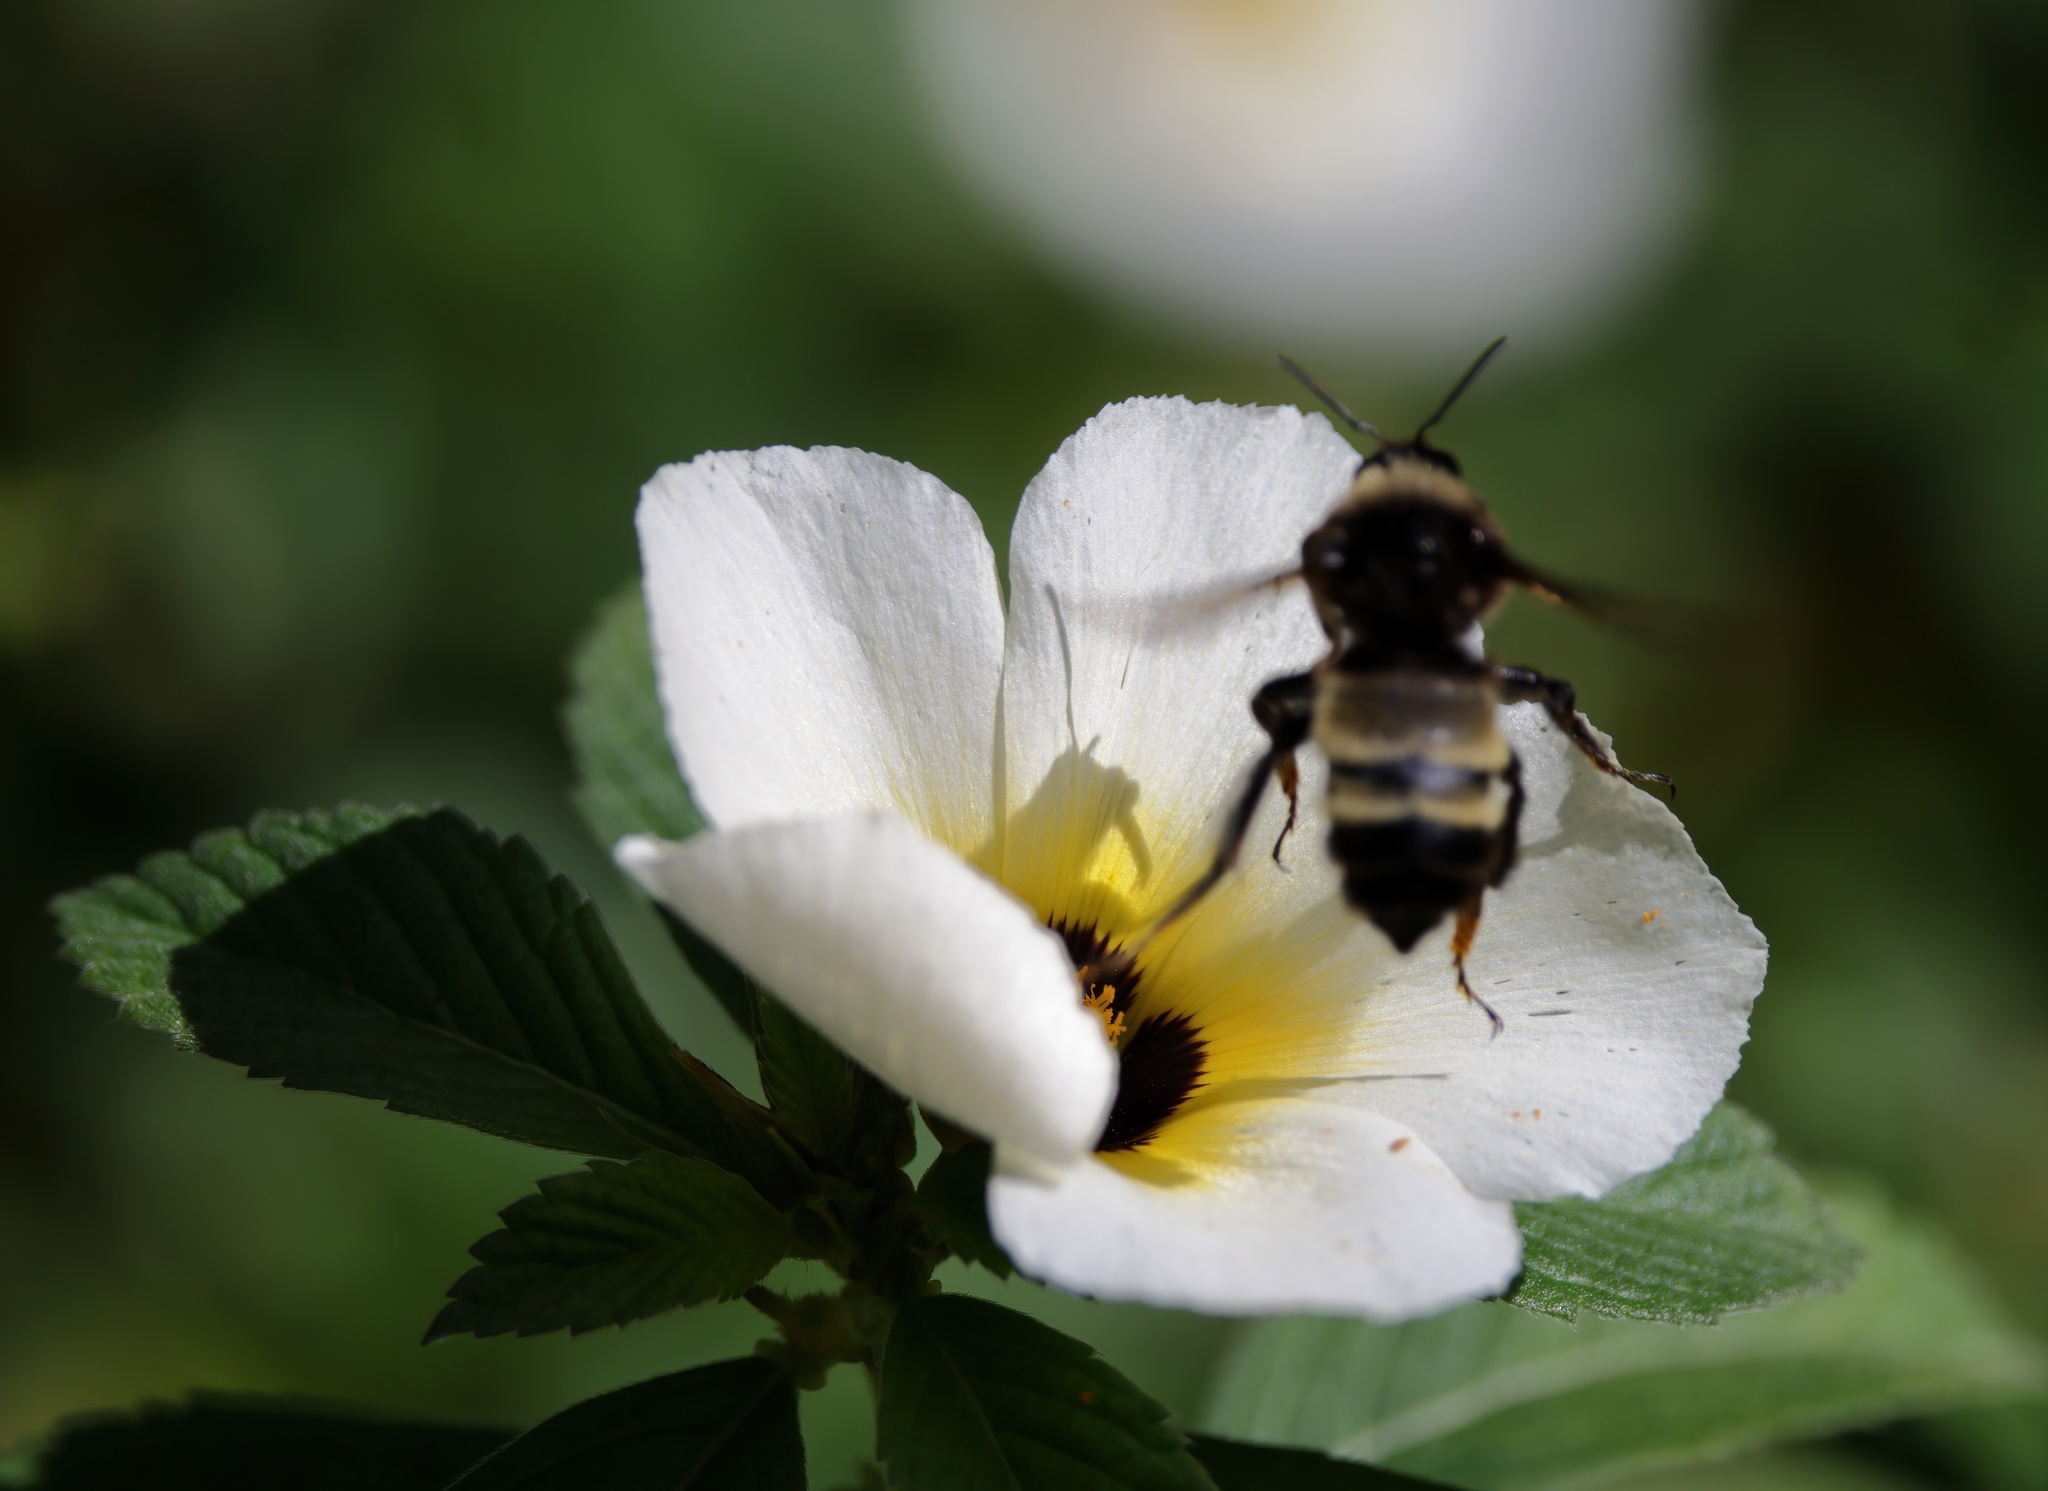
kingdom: Animalia
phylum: Arthropoda
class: Insecta
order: Hymenoptera
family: Apidae
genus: Bombus
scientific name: Bombus pensylvanicus
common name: Bumble bee
